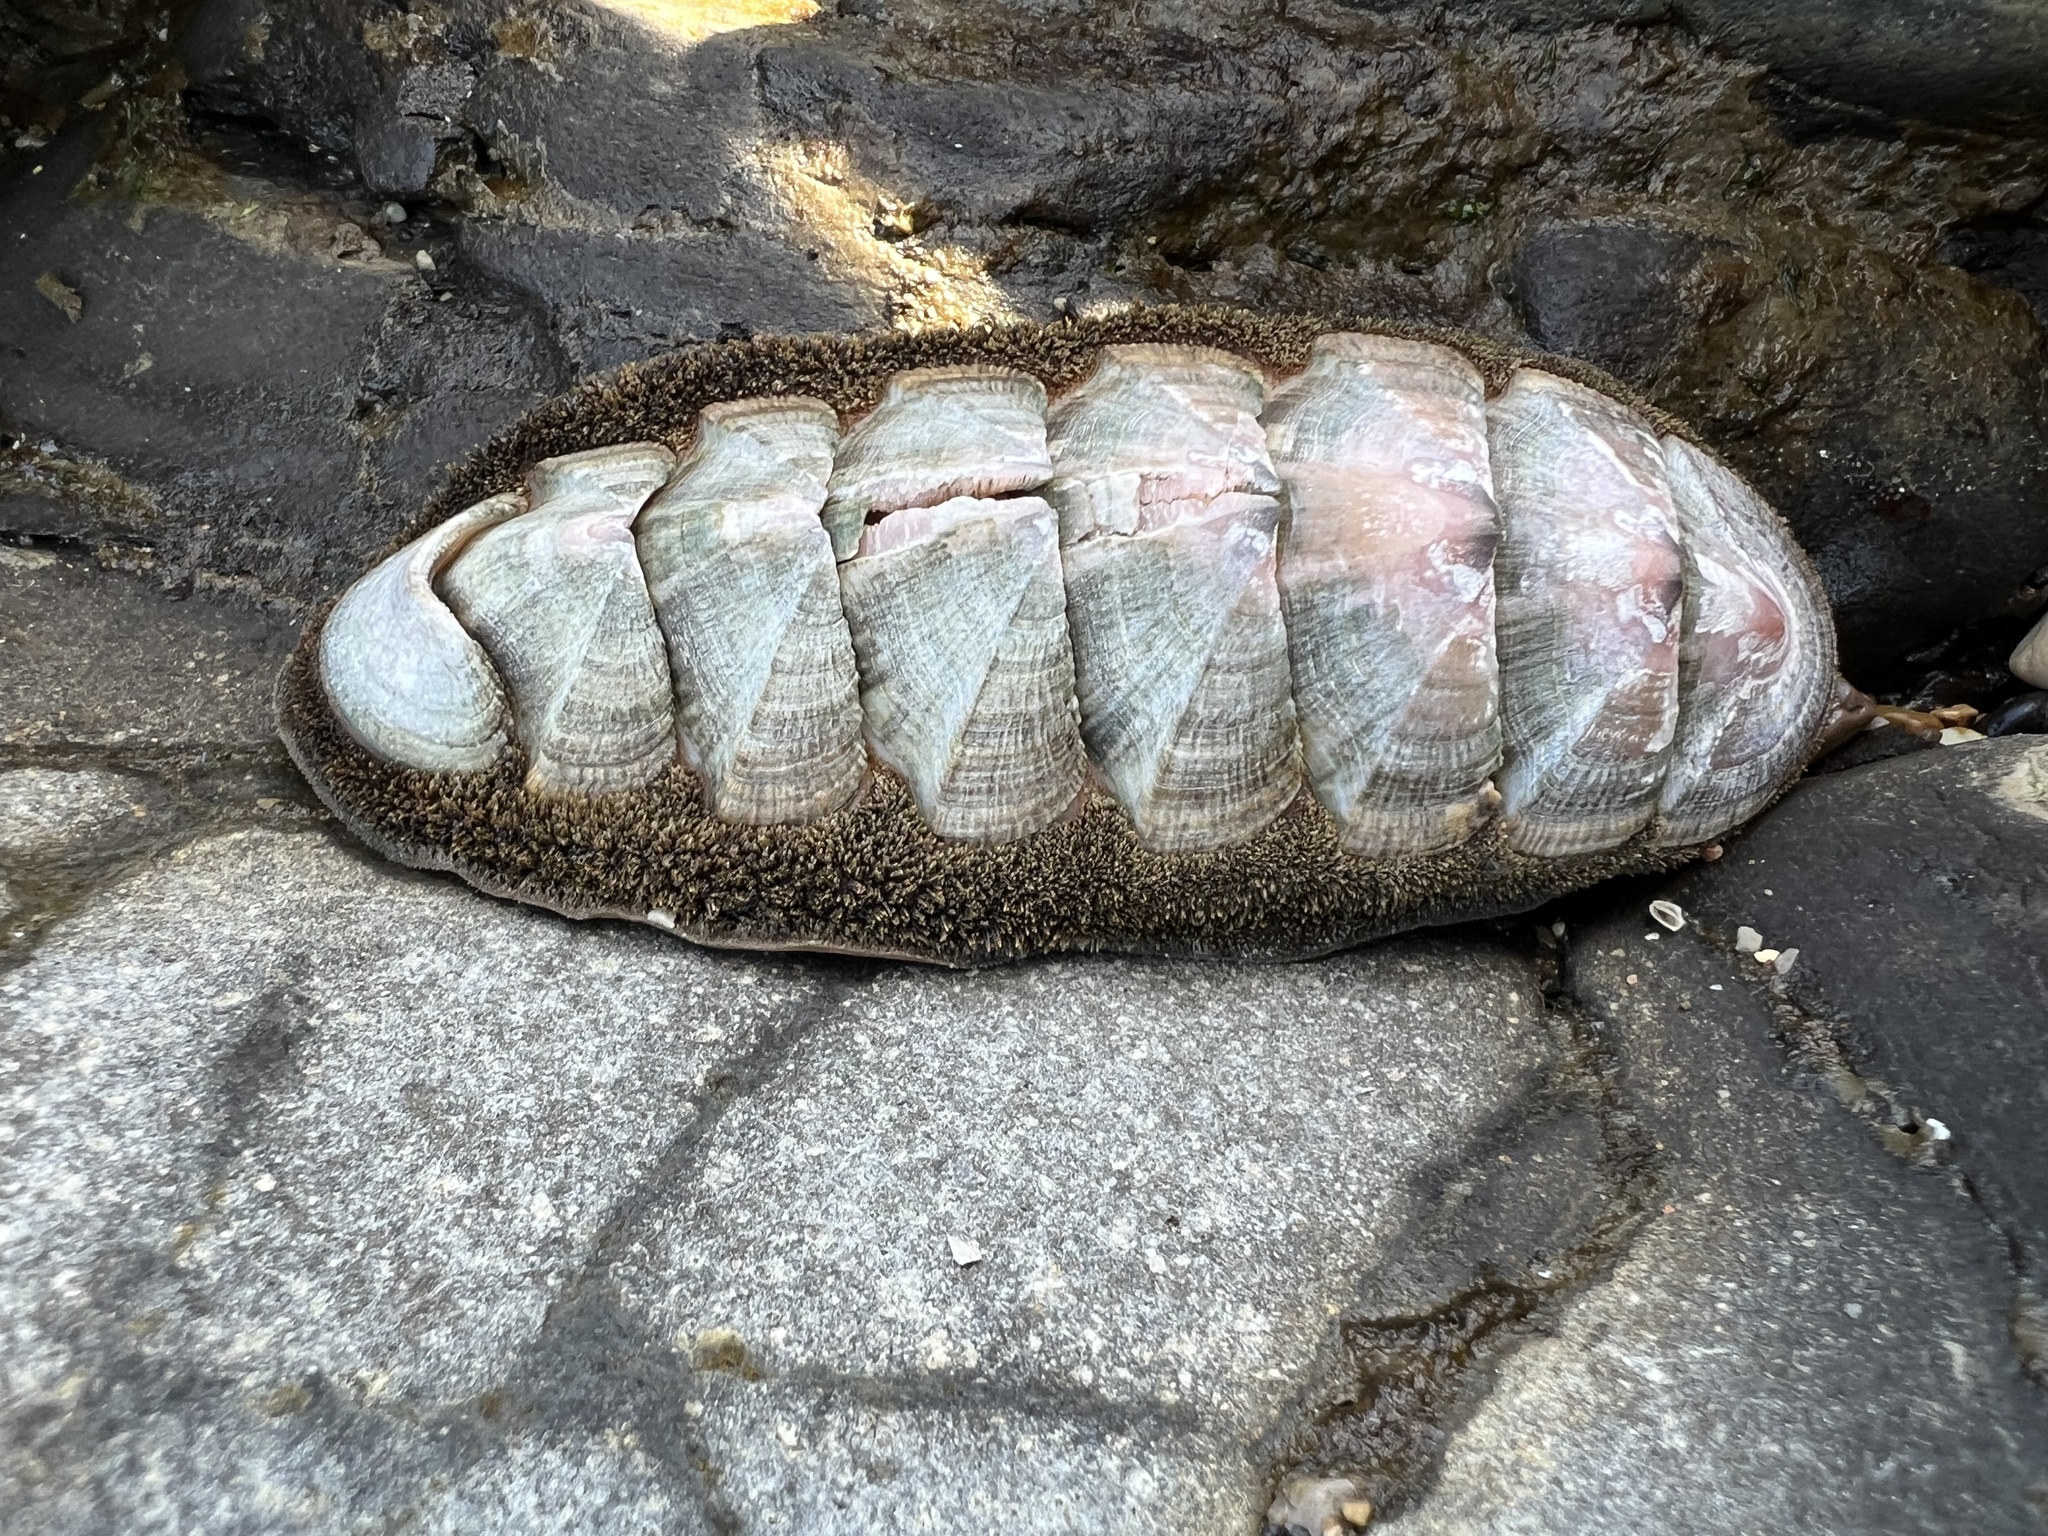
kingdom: Animalia
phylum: Mollusca
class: Polyplacophora
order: Chitonida
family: Ischnochitonidae
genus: Stenoplax
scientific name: Stenoplax conspicua
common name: Conspicuous chiton
